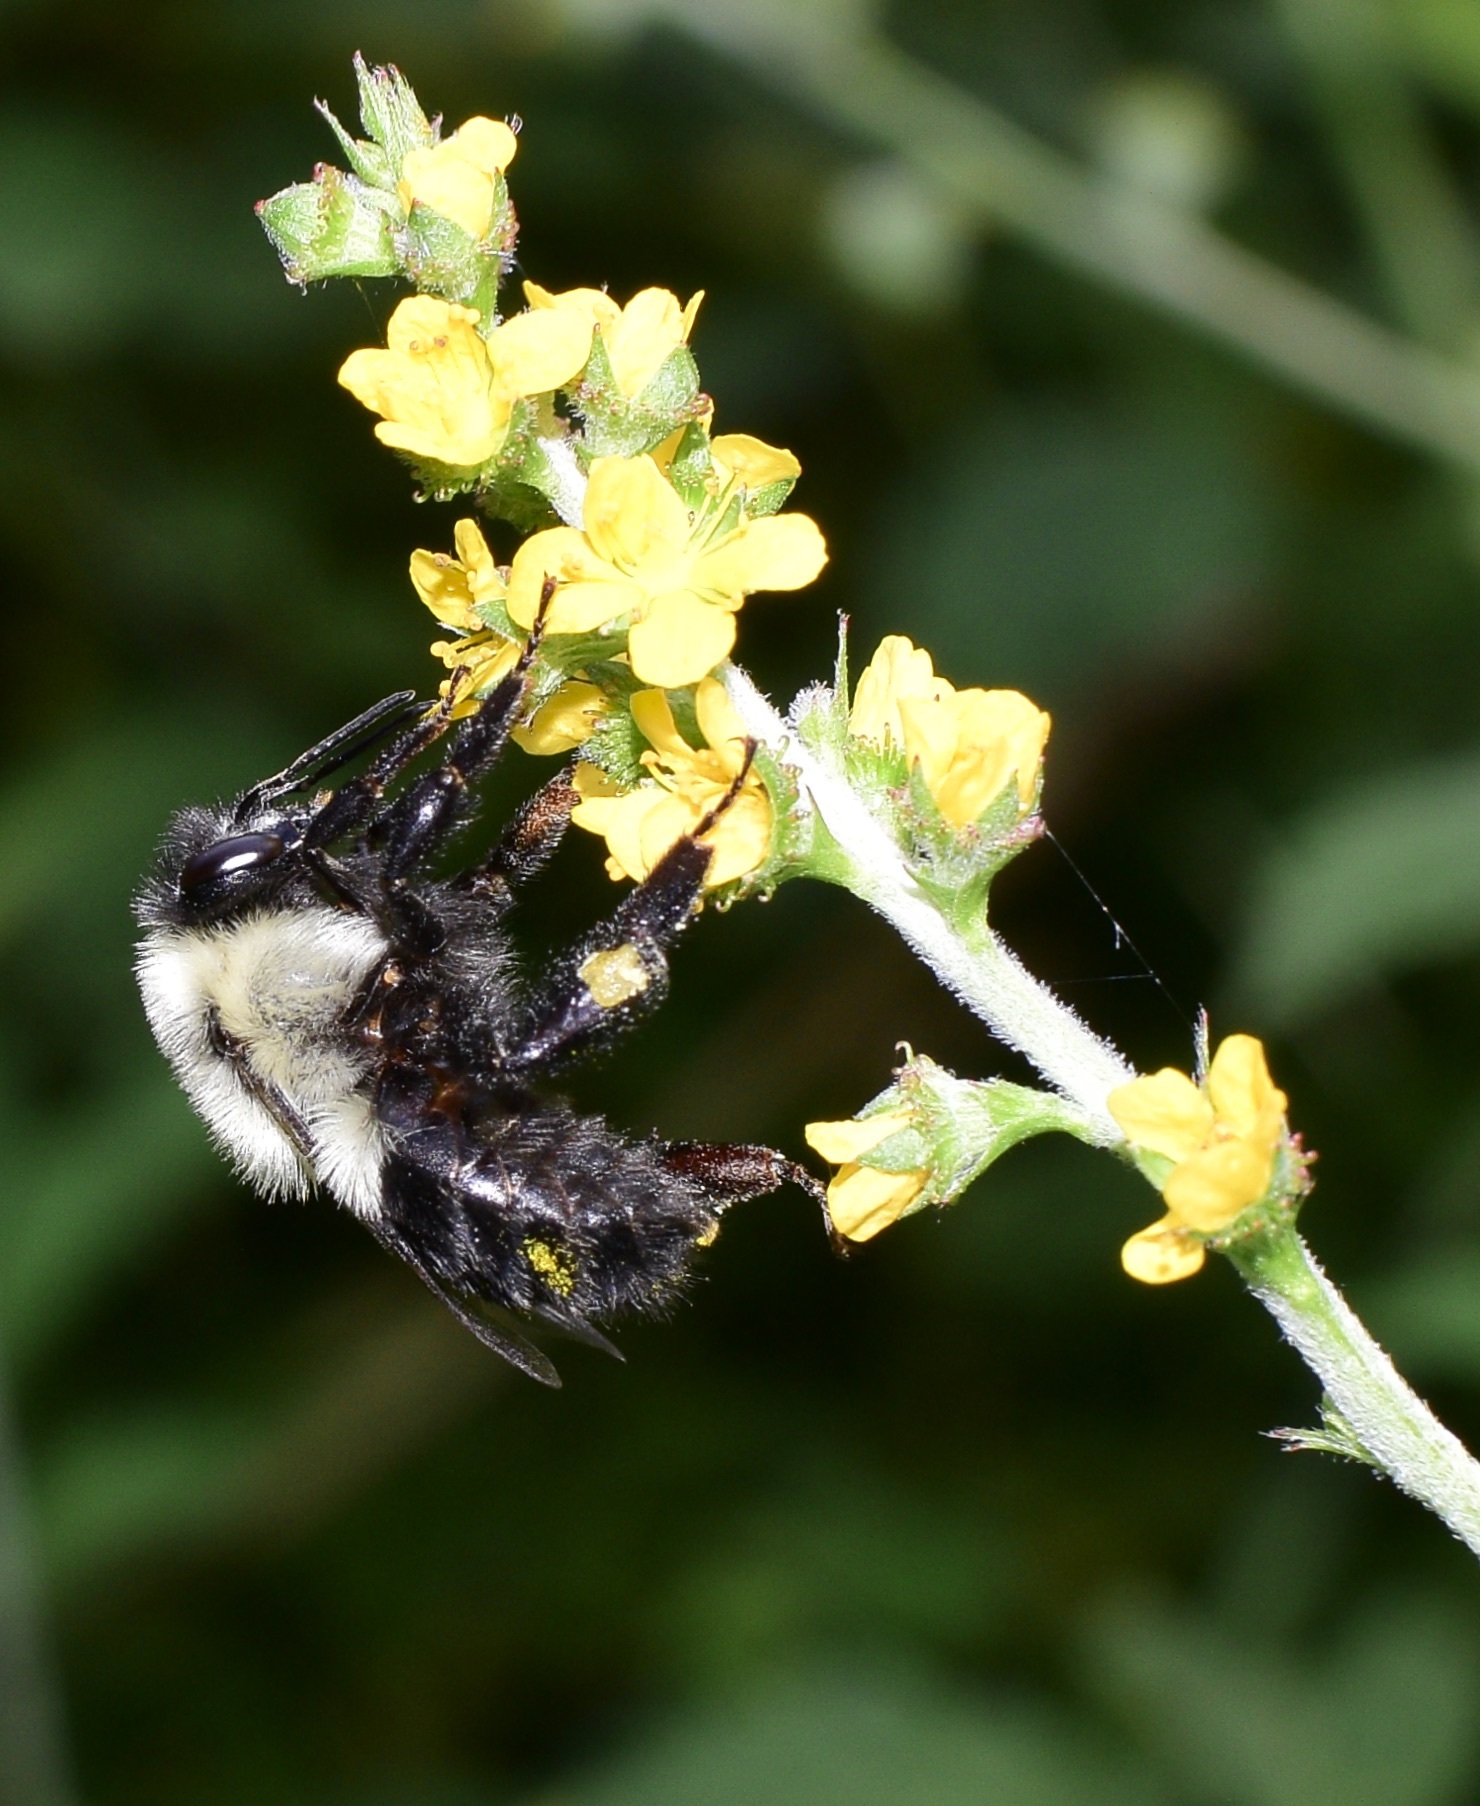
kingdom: Animalia
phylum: Arthropoda
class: Insecta
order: Hymenoptera
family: Apidae
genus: Bombus
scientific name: Bombus impatiens
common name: Common eastern bumble bee
